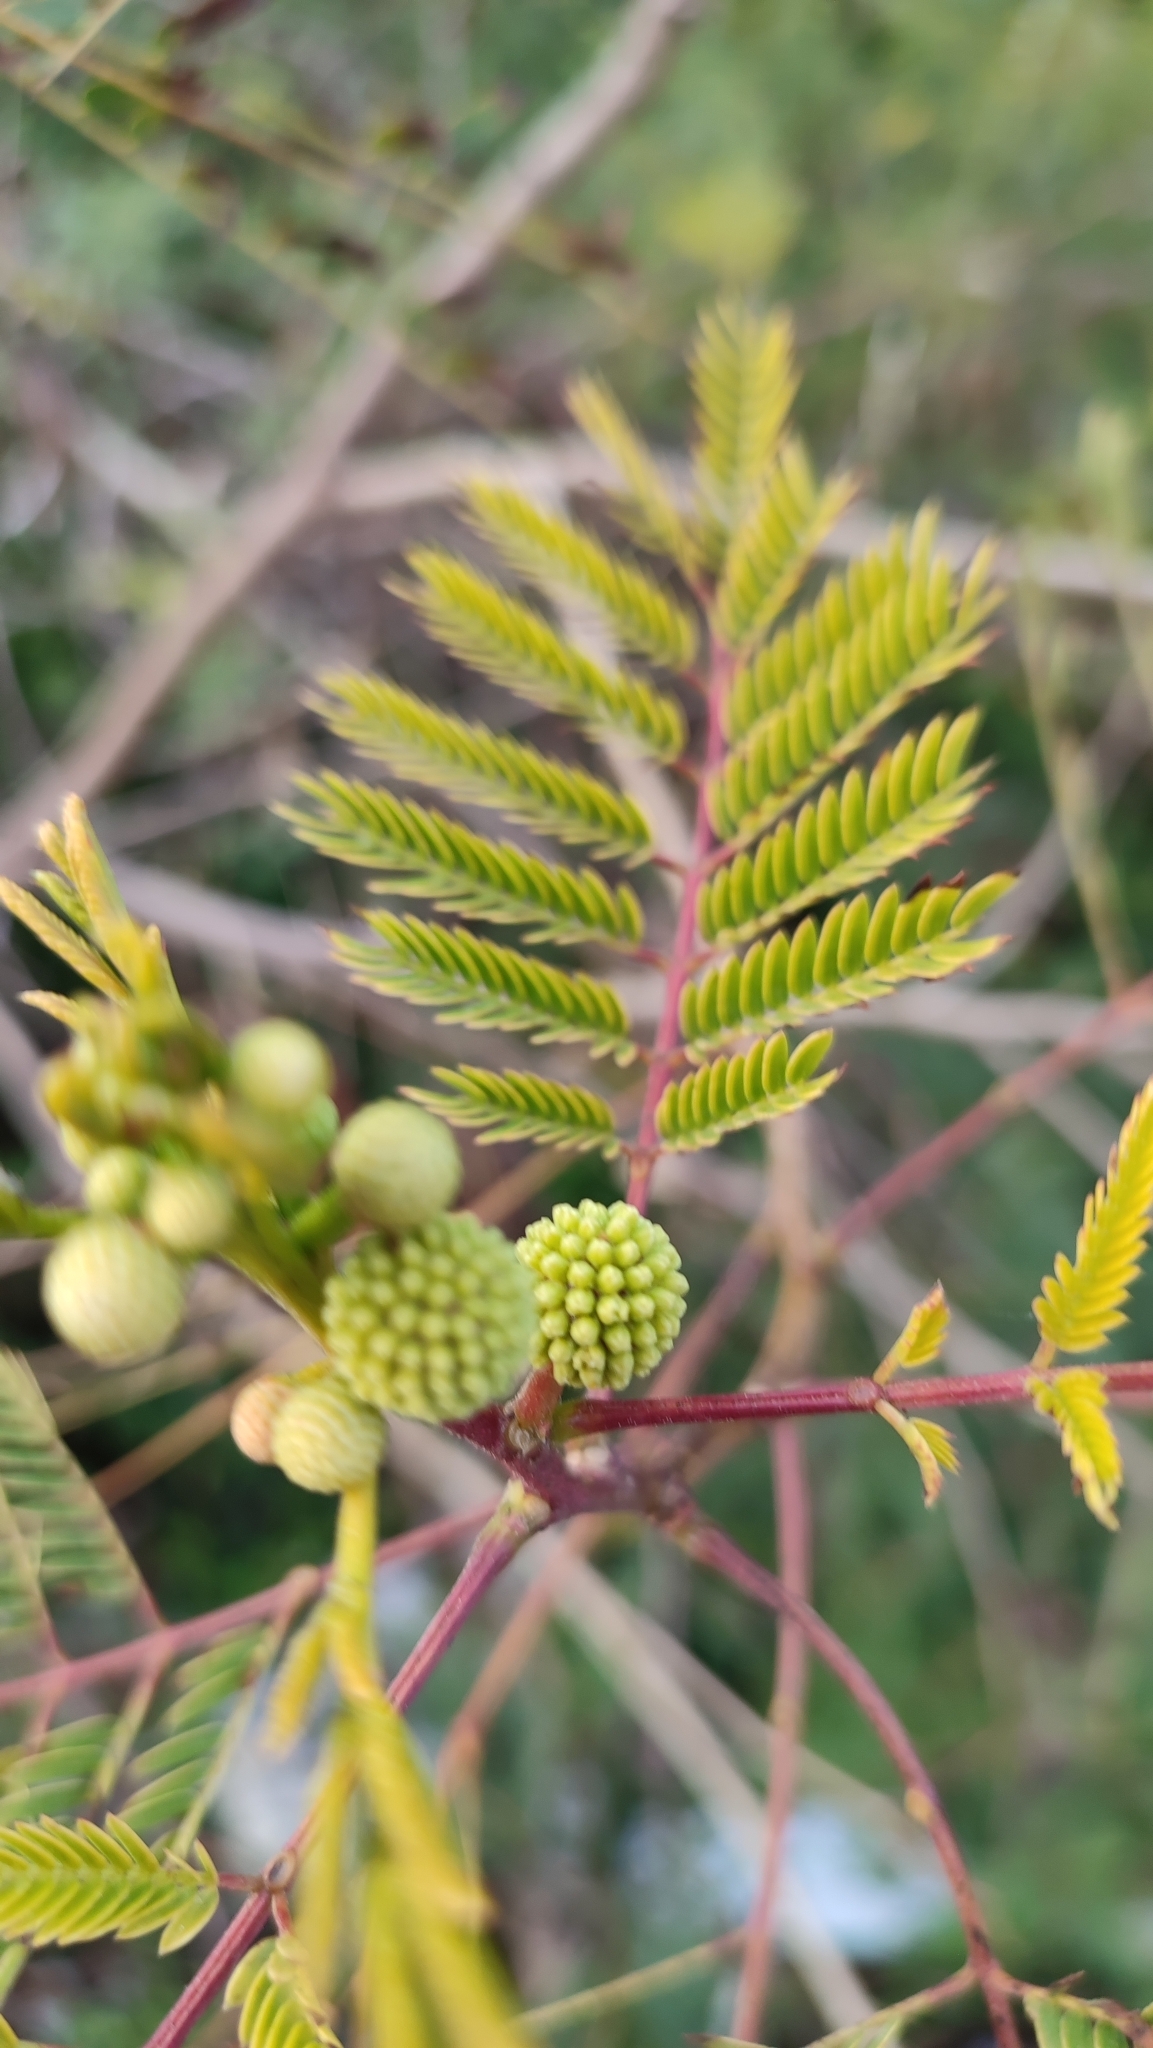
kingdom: Plantae
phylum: Tracheophyta
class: Magnoliopsida
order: Fabales
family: Fabaceae
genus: Leucaena
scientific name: Leucaena leucocephala
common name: White leadtree
